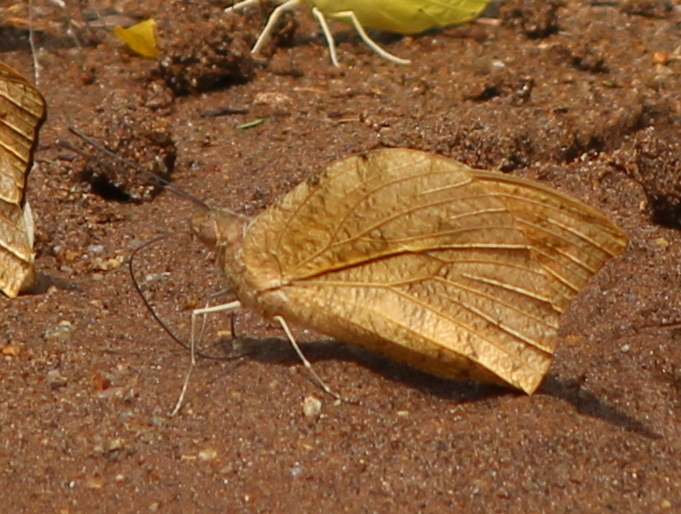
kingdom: Animalia
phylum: Arthropoda
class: Insecta
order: Lepidoptera
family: Pieridae
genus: Hebomoia
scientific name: Hebomoia glaucippe
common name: Great orange tip
